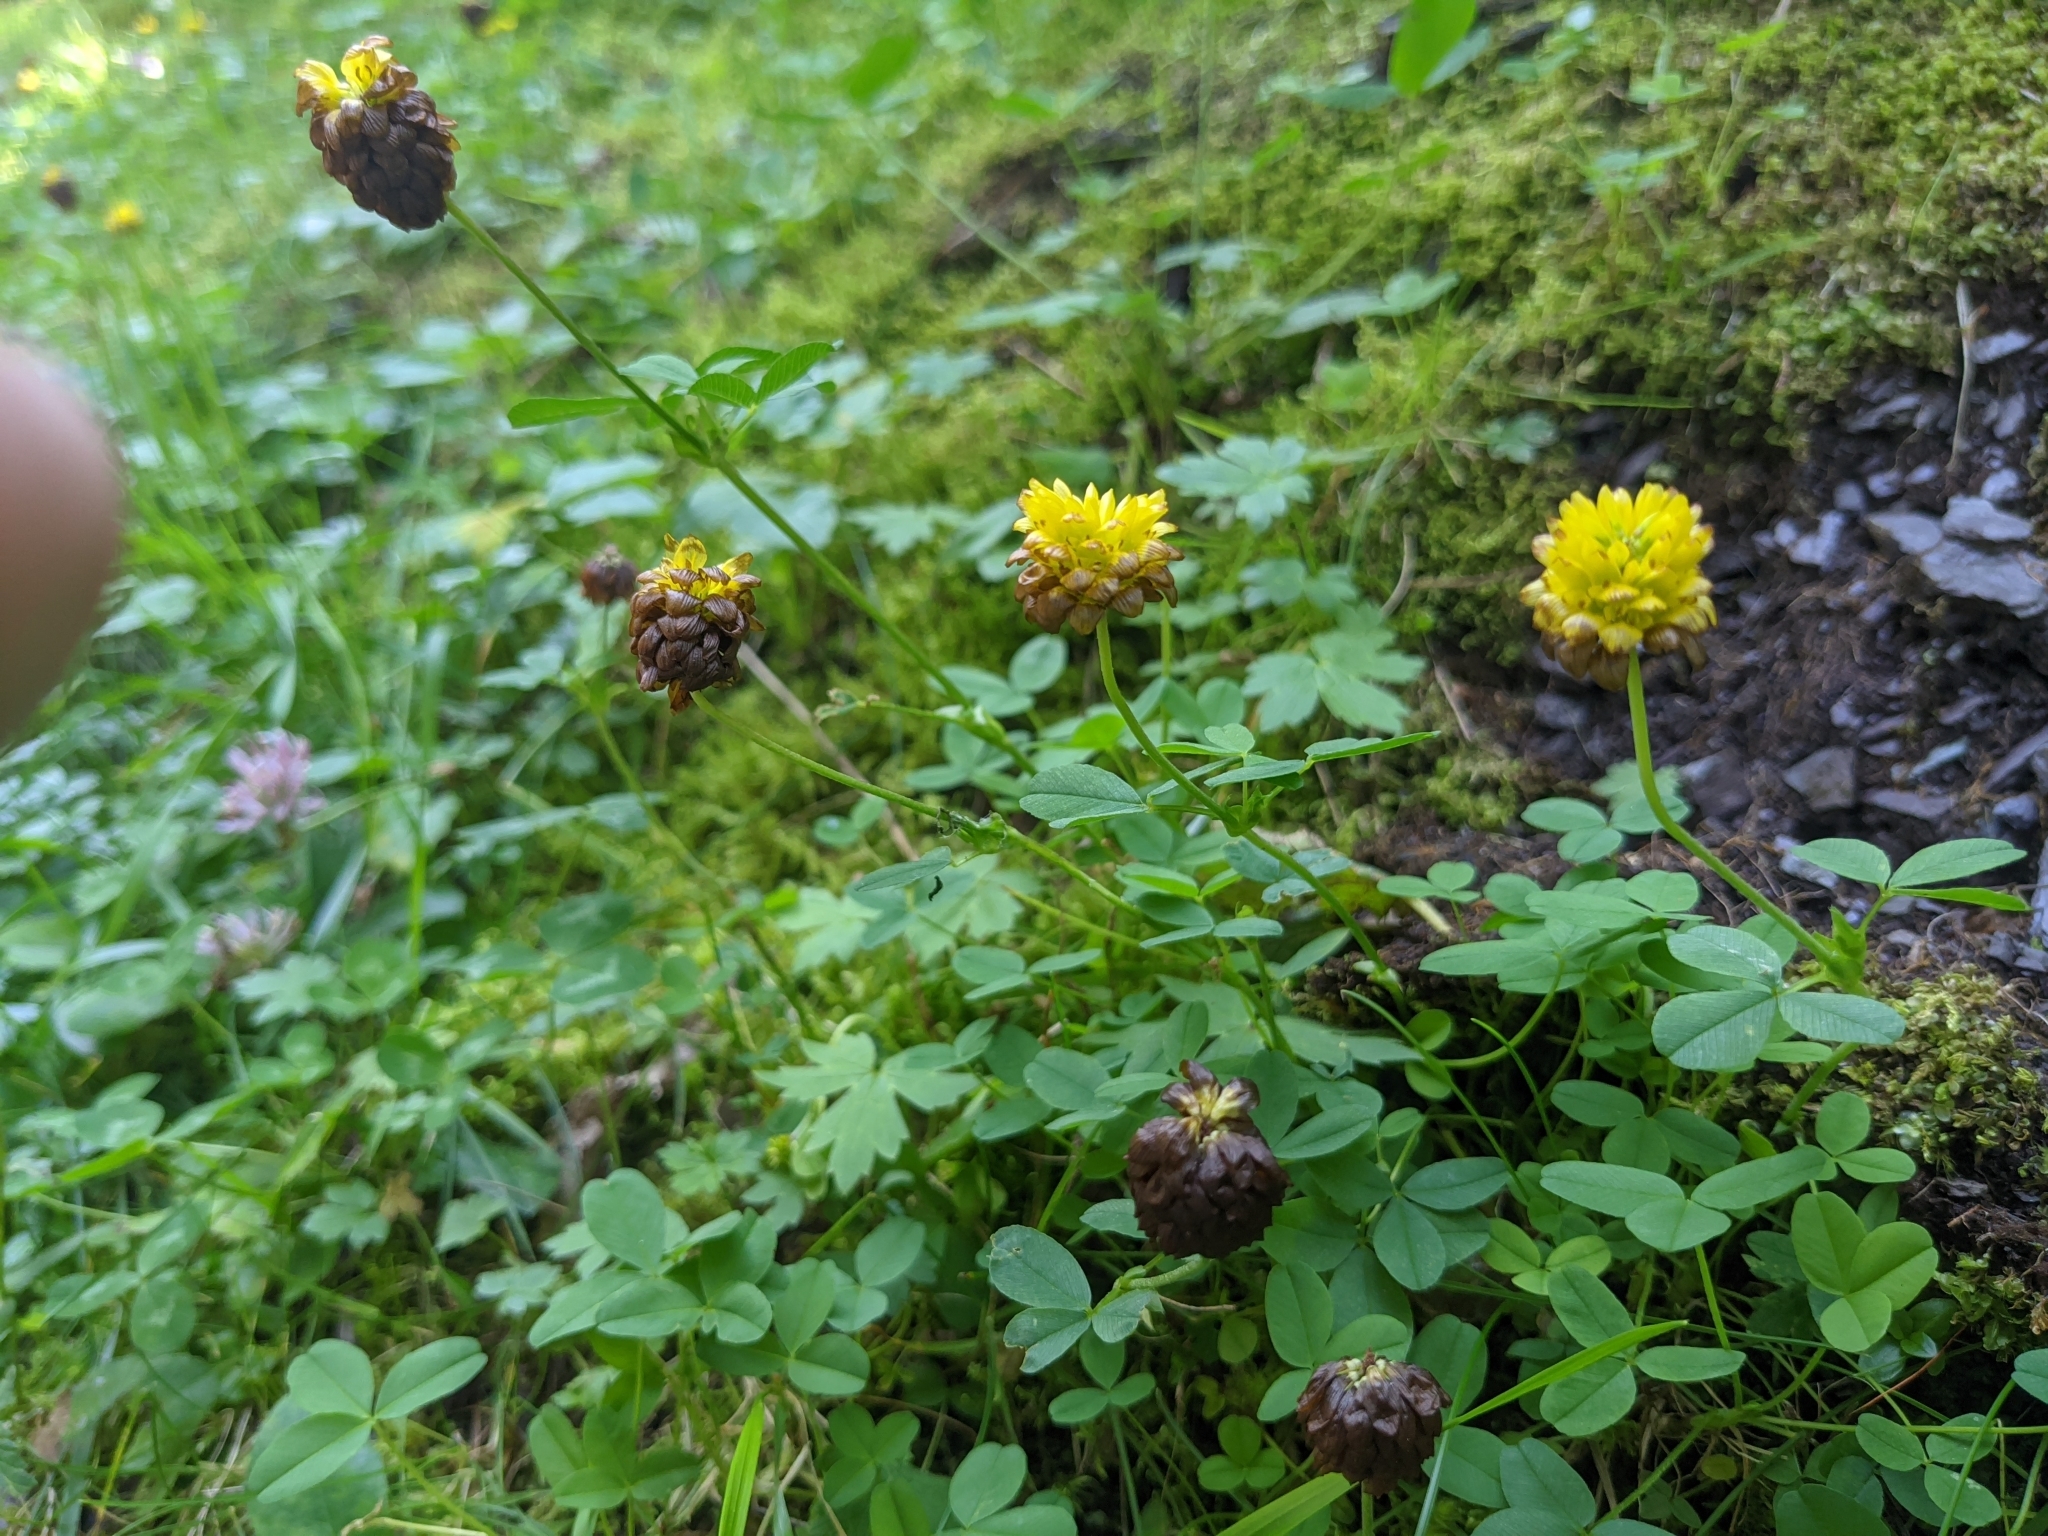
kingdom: Plantae
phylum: Tracheophyta
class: Magnoliopsida
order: Fabales
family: Fabaceae
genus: Trifolium
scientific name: Trifolium badium
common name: Brown clover
